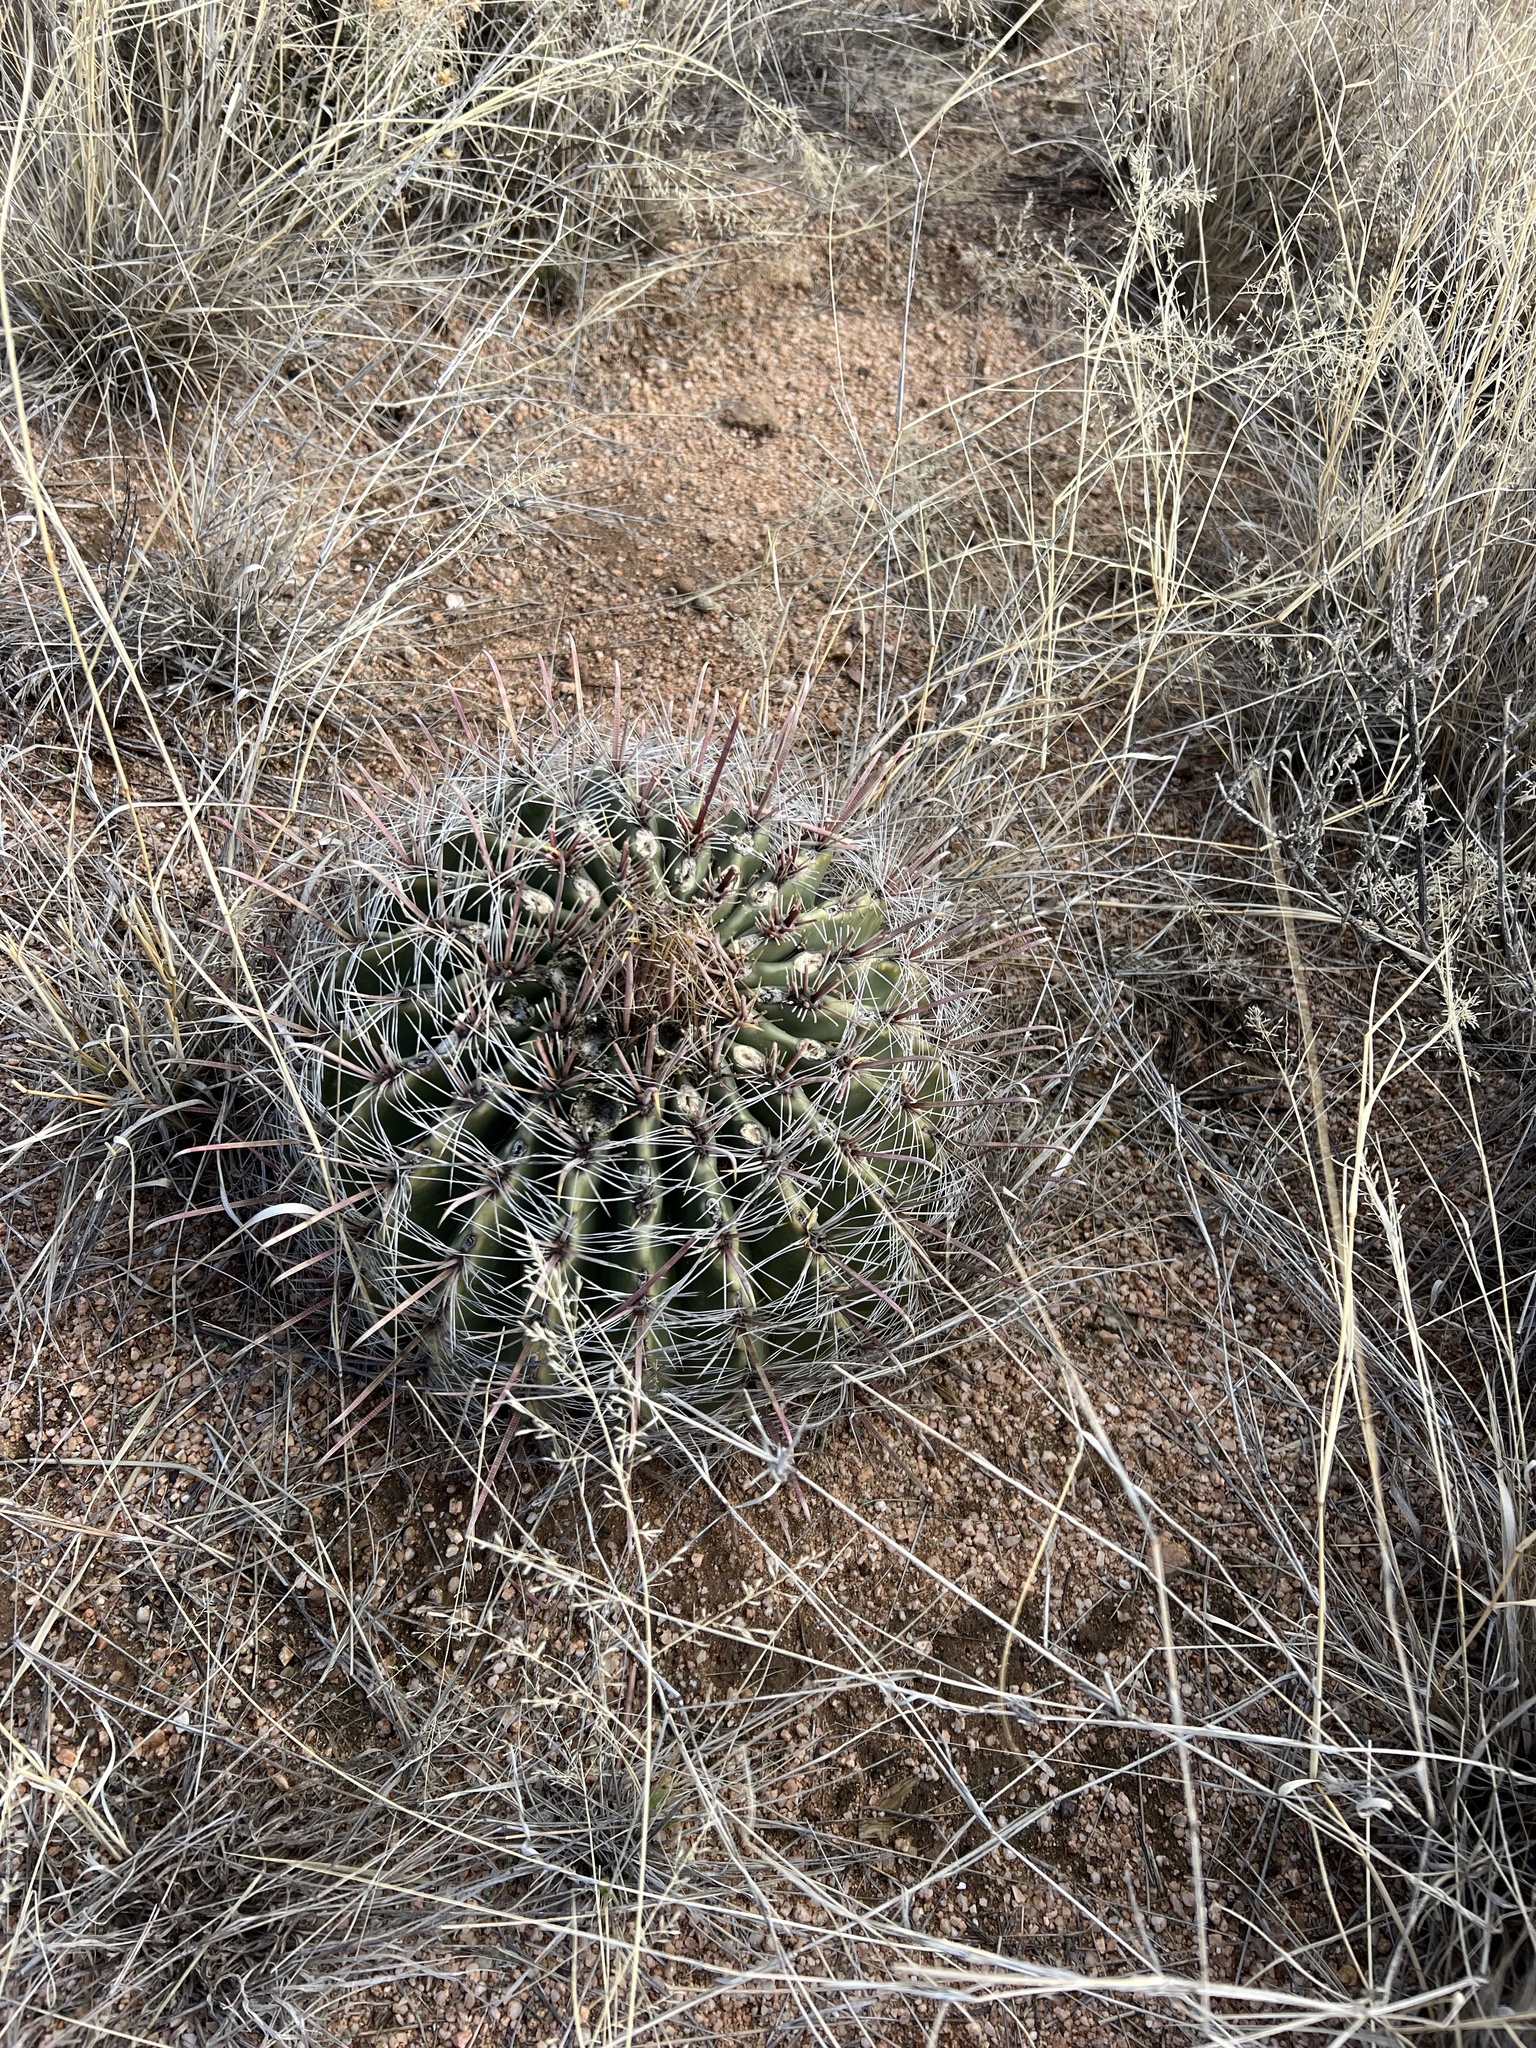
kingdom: Plantae
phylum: Tracheophyta
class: Magnoliopsida
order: Caryophyllales
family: Cactaceae
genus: Ferocactus
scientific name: Ferocactus wislizeni
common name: Candy barrel cactus
